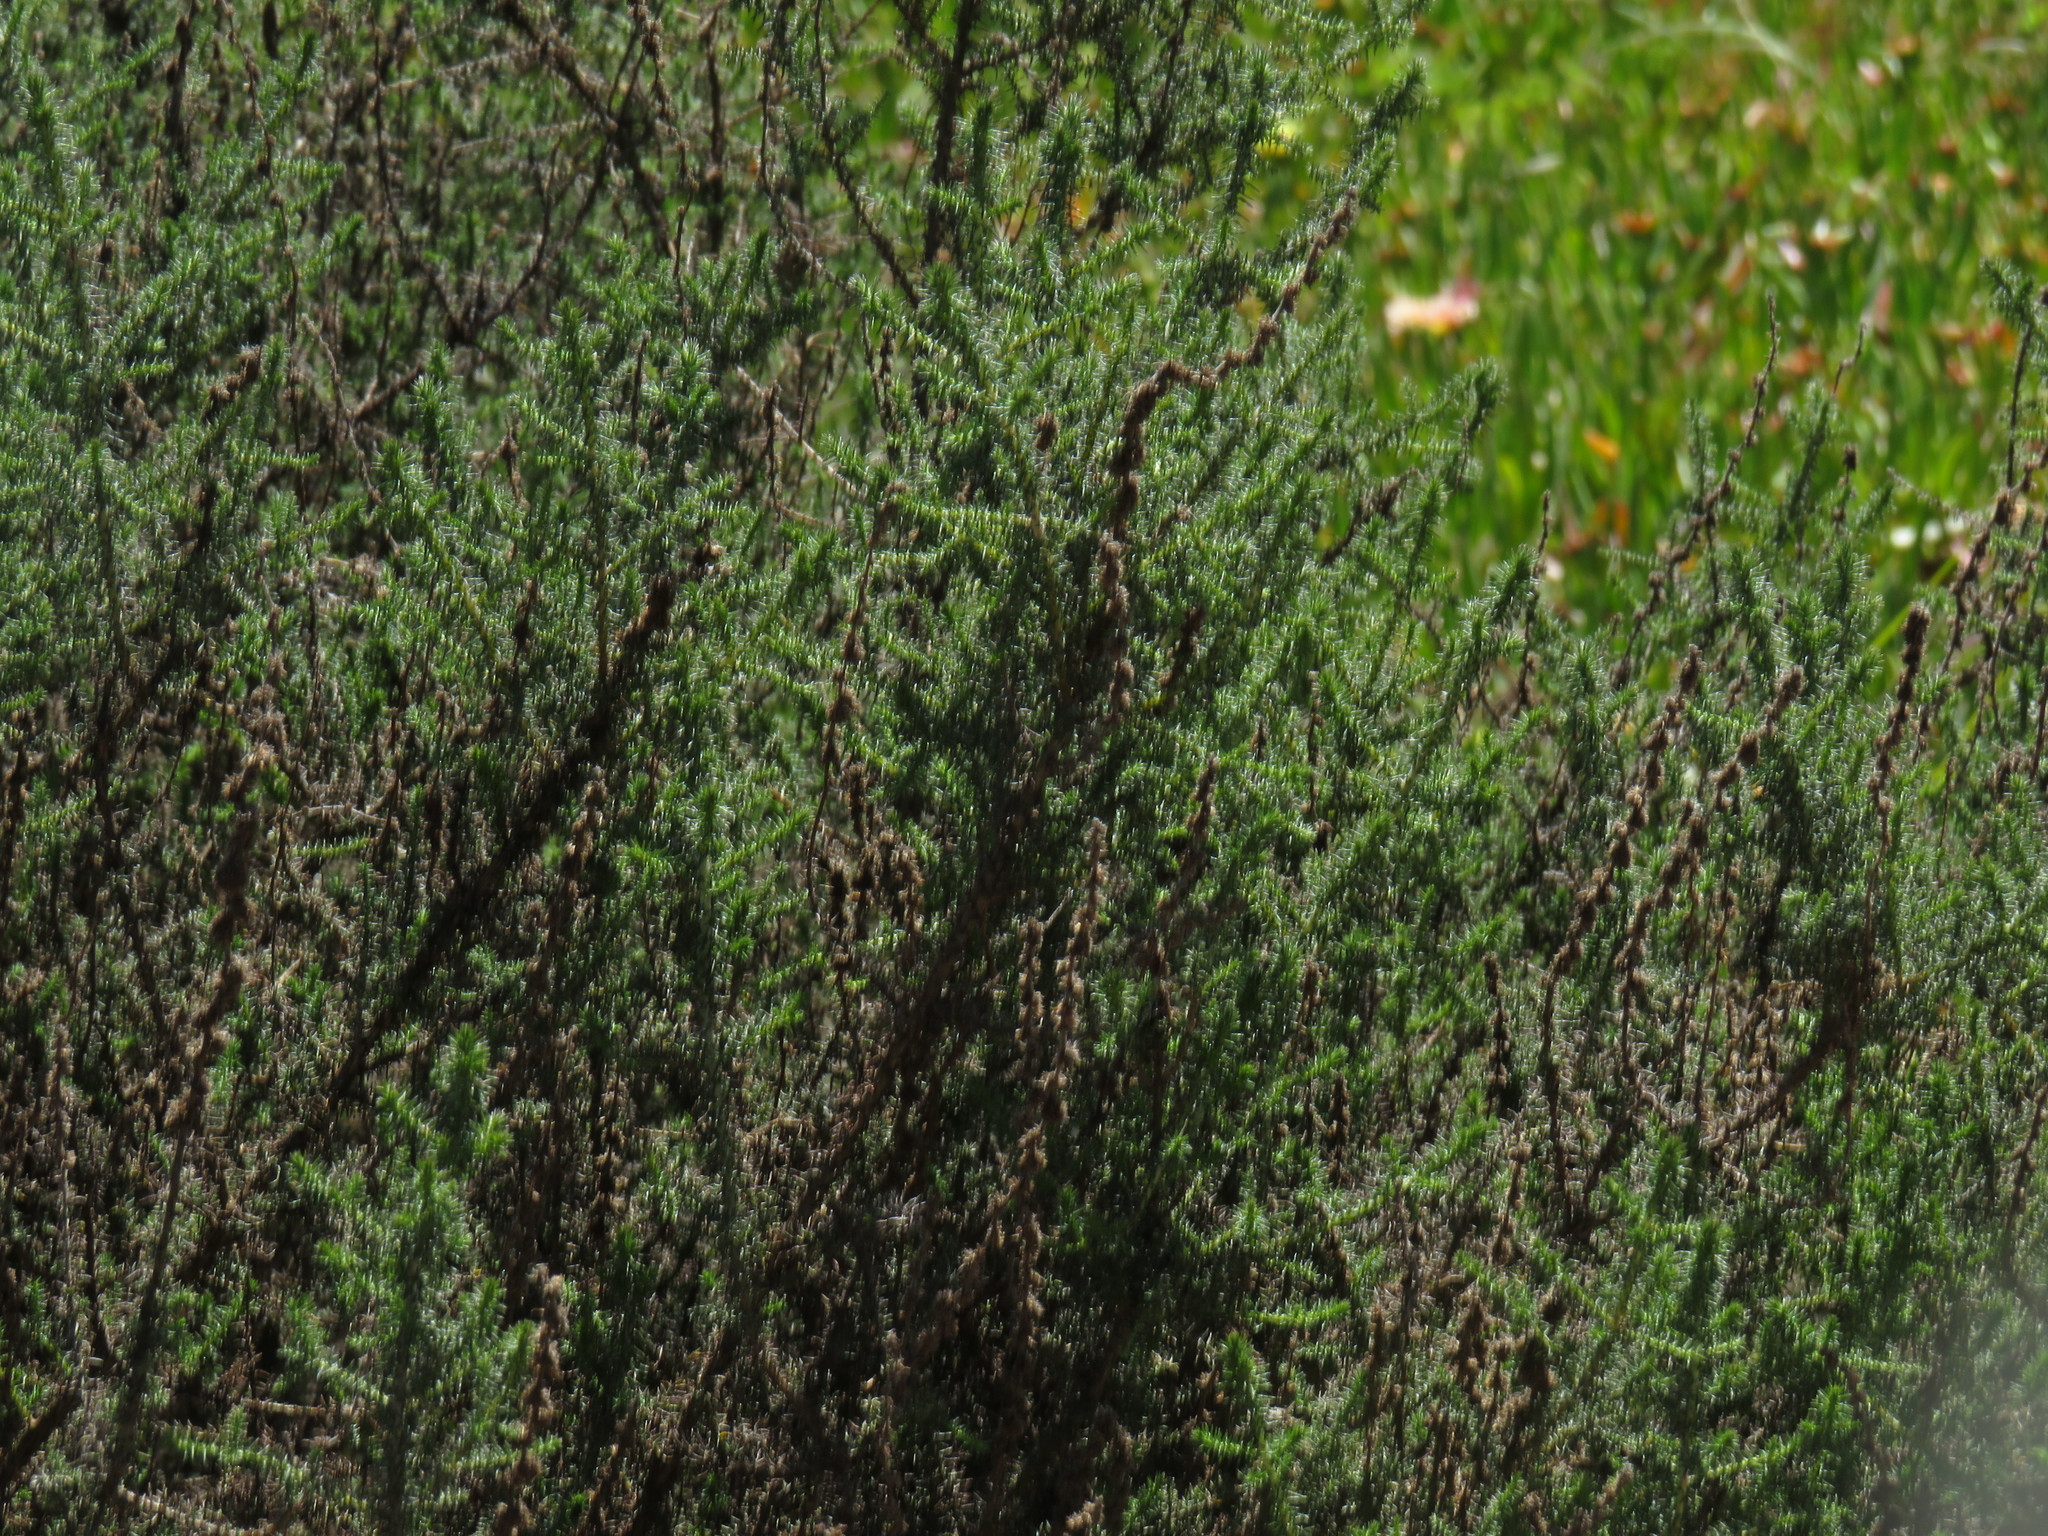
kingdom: Plantae
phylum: Tracheophyta
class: Magnoliopsida
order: Asterales
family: Asteraceae
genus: Seriphium
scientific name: Seriphium cinereum
